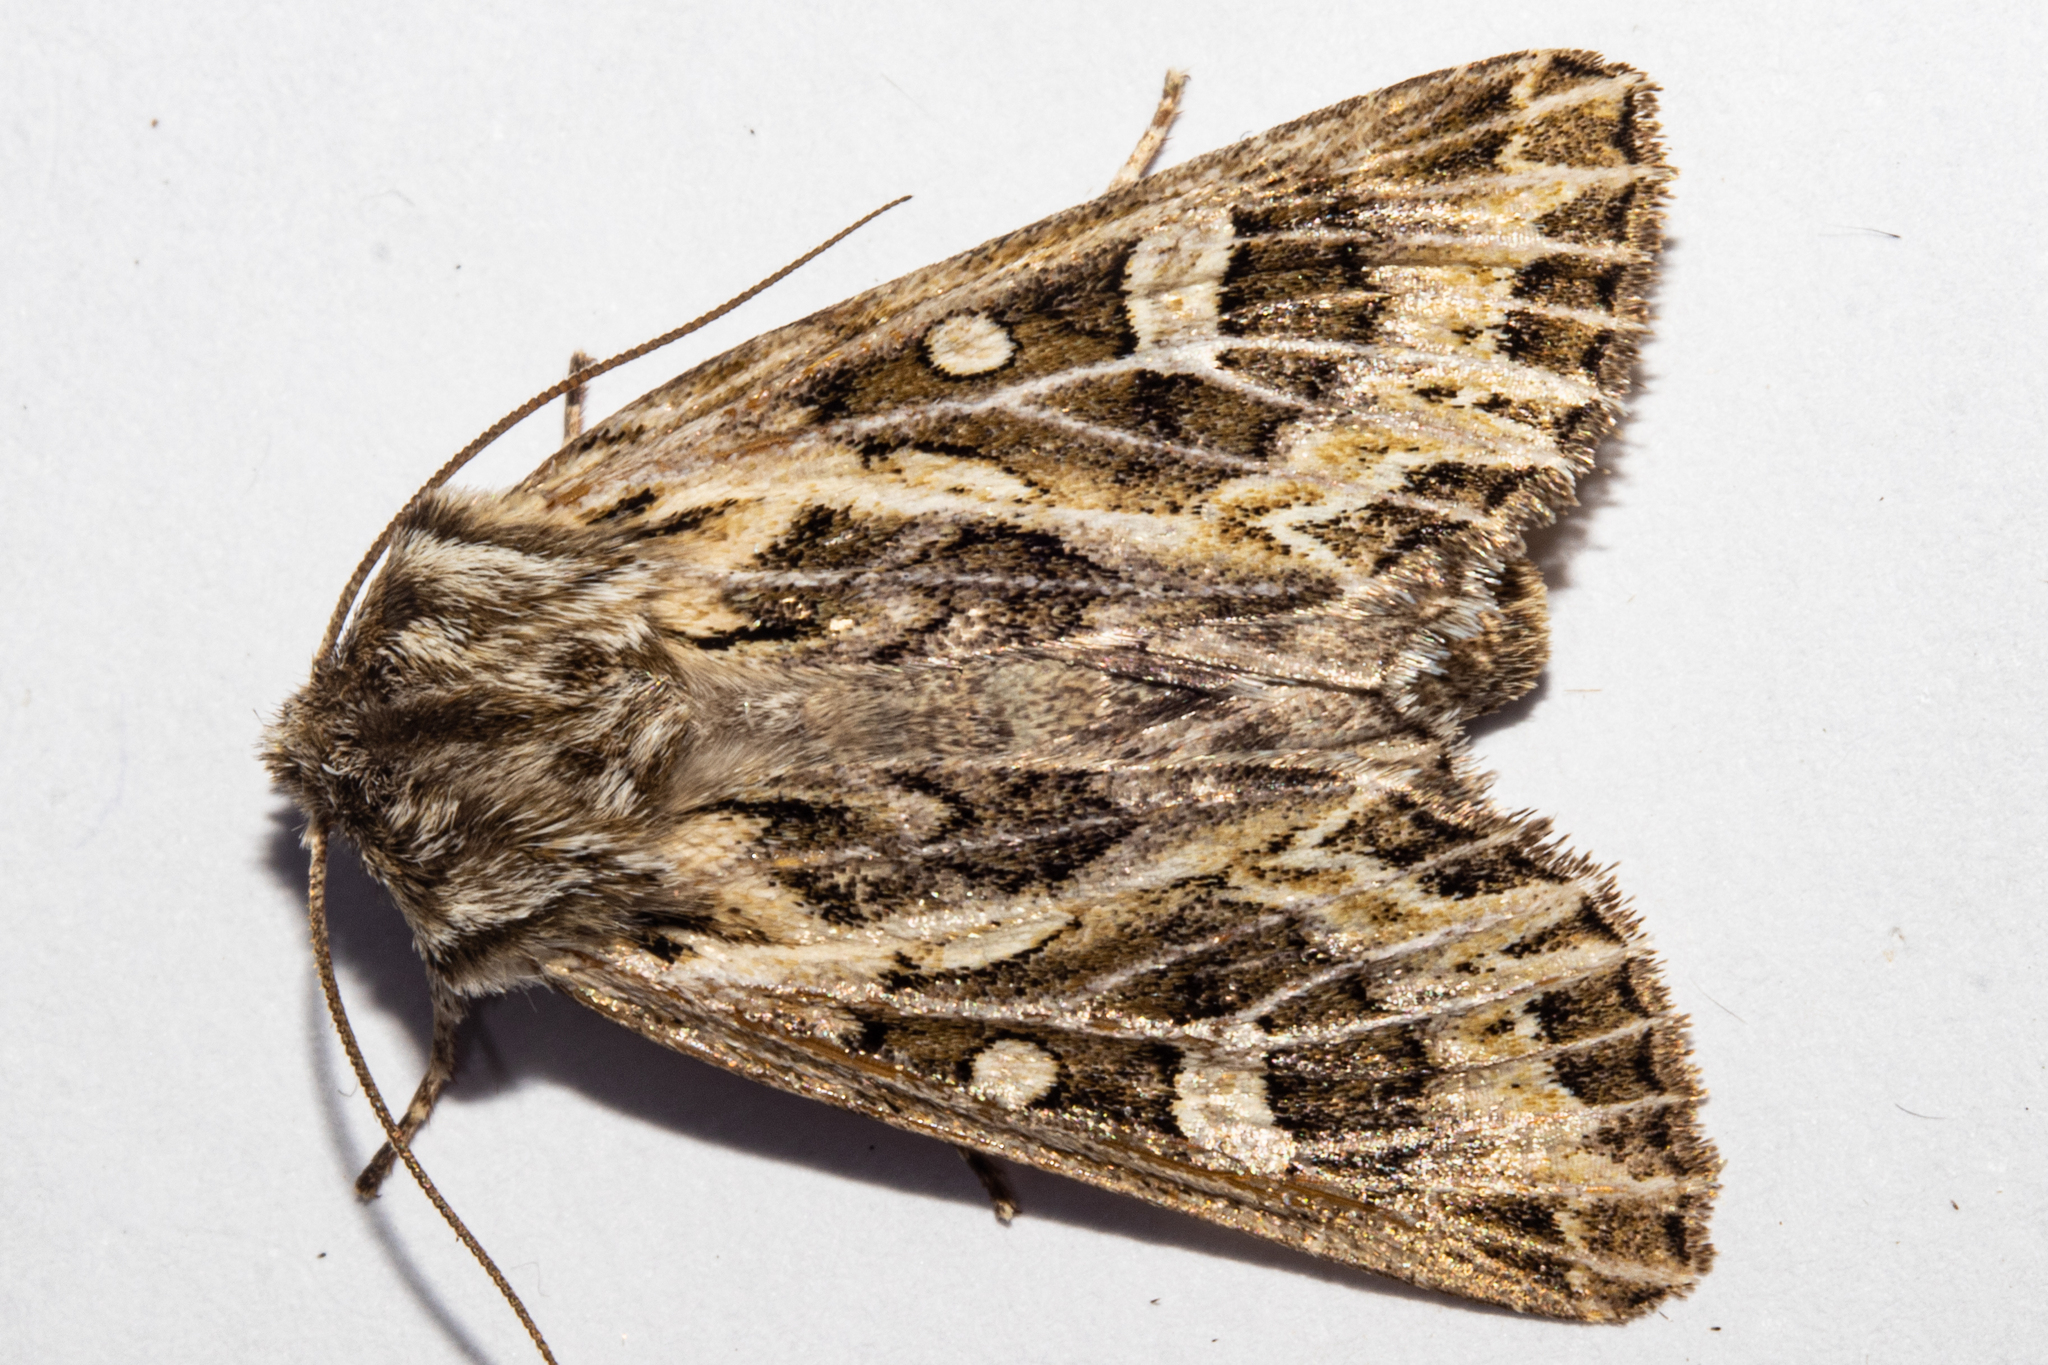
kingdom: Animalia
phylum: Arthropoda
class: Insecta
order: Lepidoptera
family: Noctuidae
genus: Ichneutica
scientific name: Ichneutica
